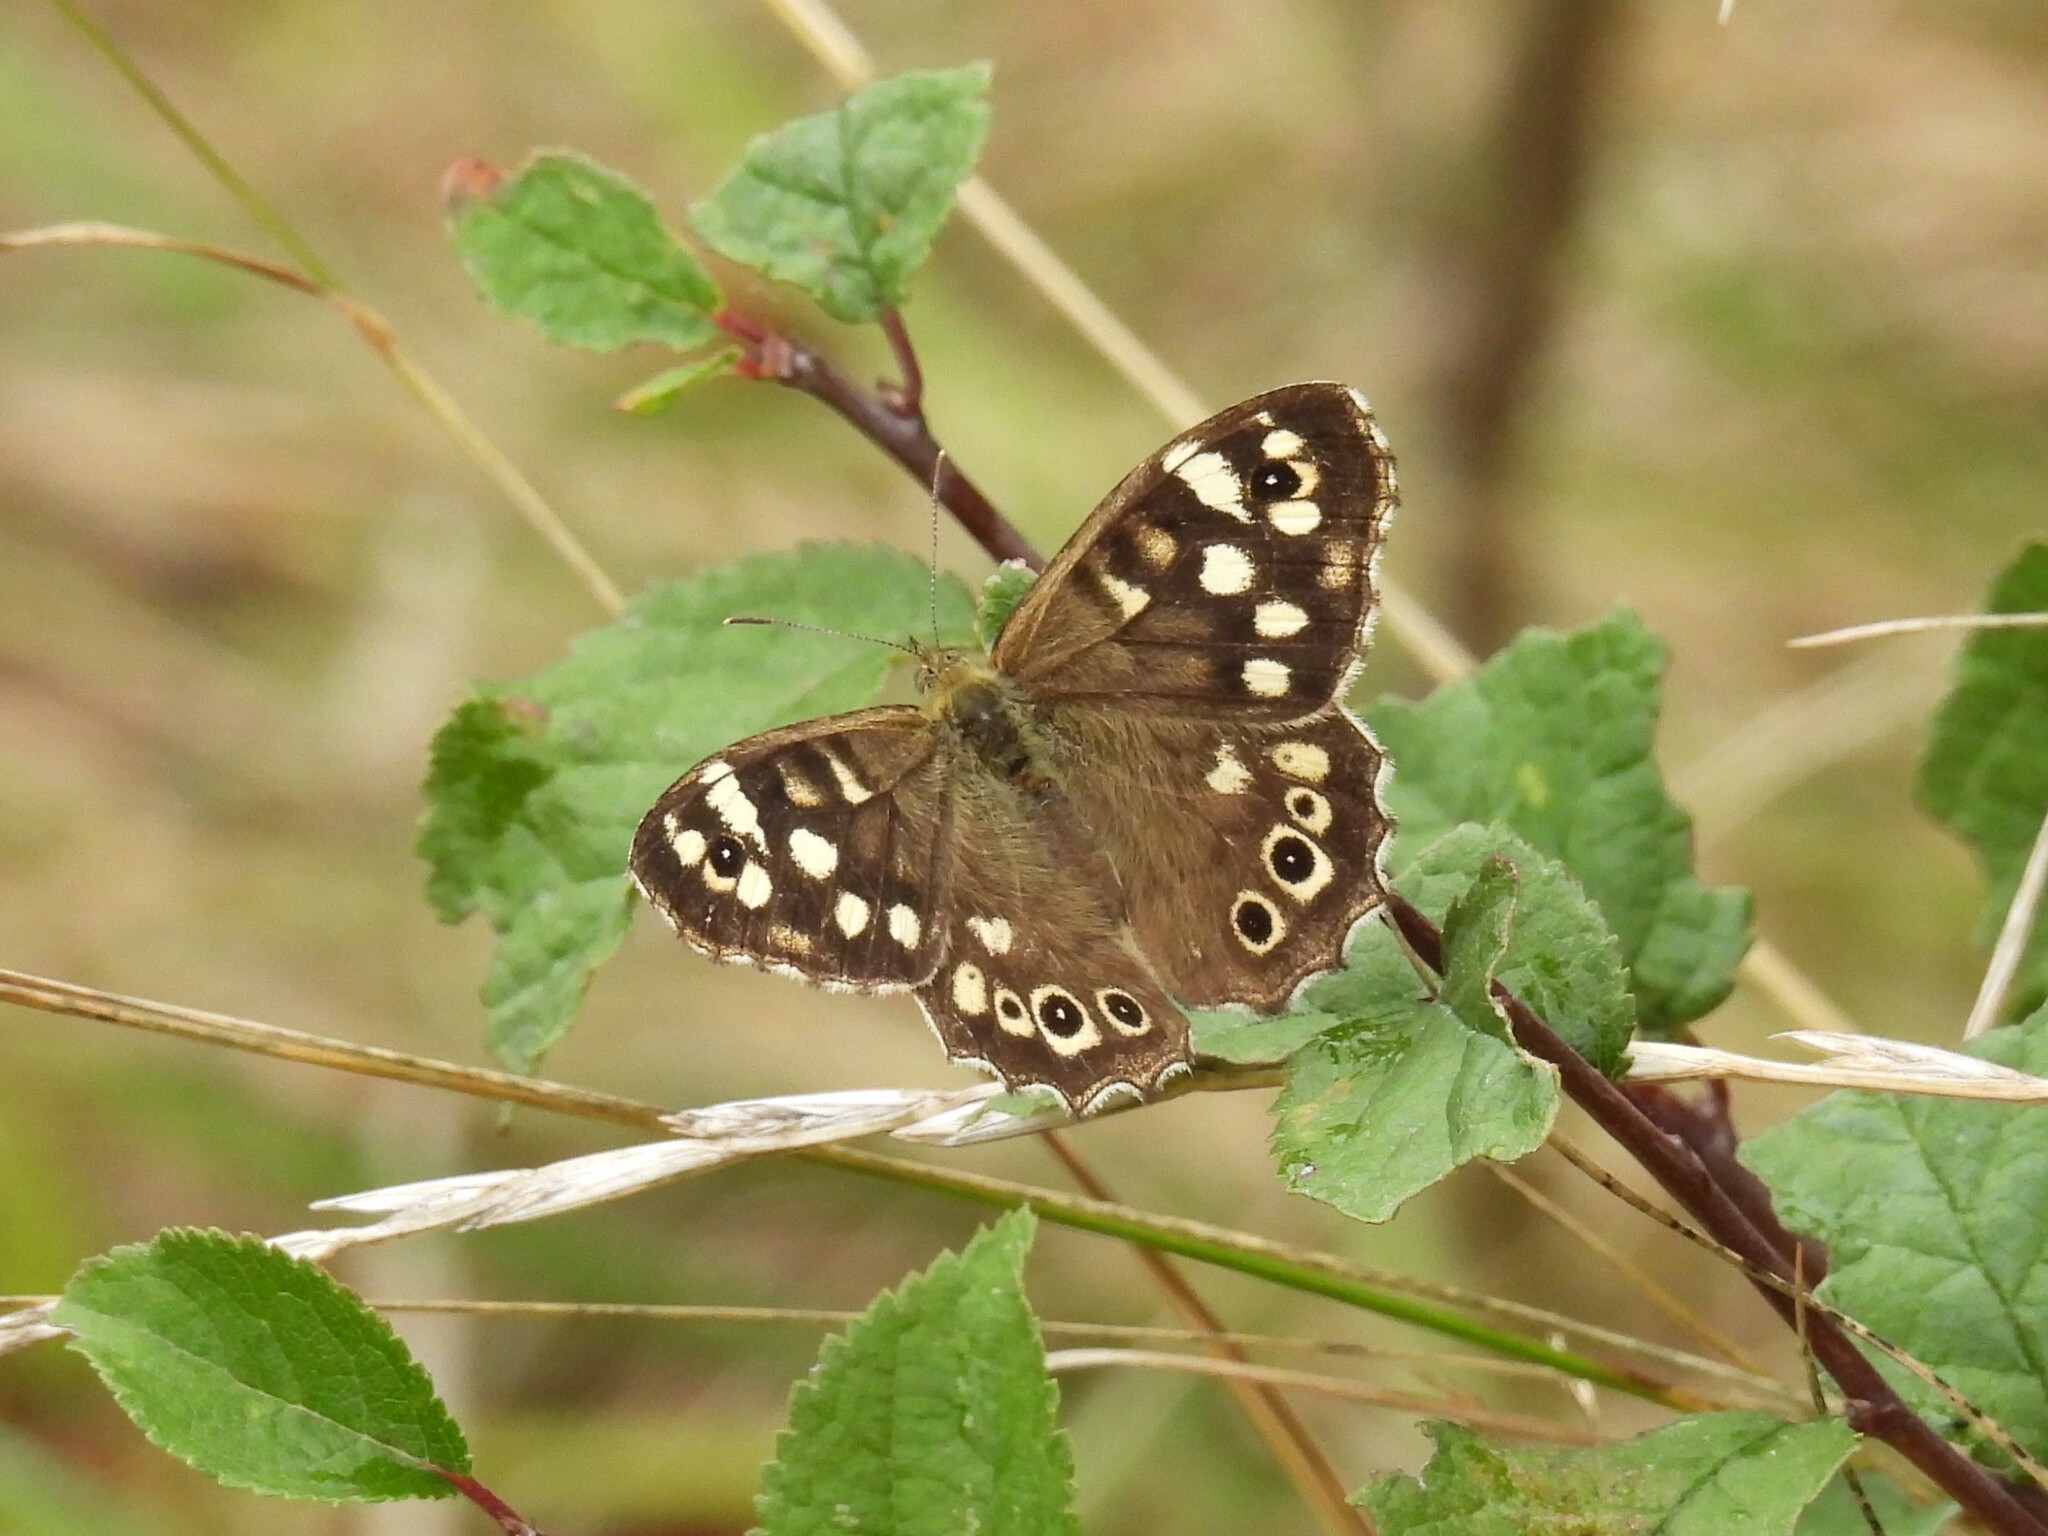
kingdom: Animalia
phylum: Arthropoda
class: Insecta
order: Lepidoptera
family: Nymphalidae
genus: Pararge
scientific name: Pararge aegeria
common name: Speckled wood
